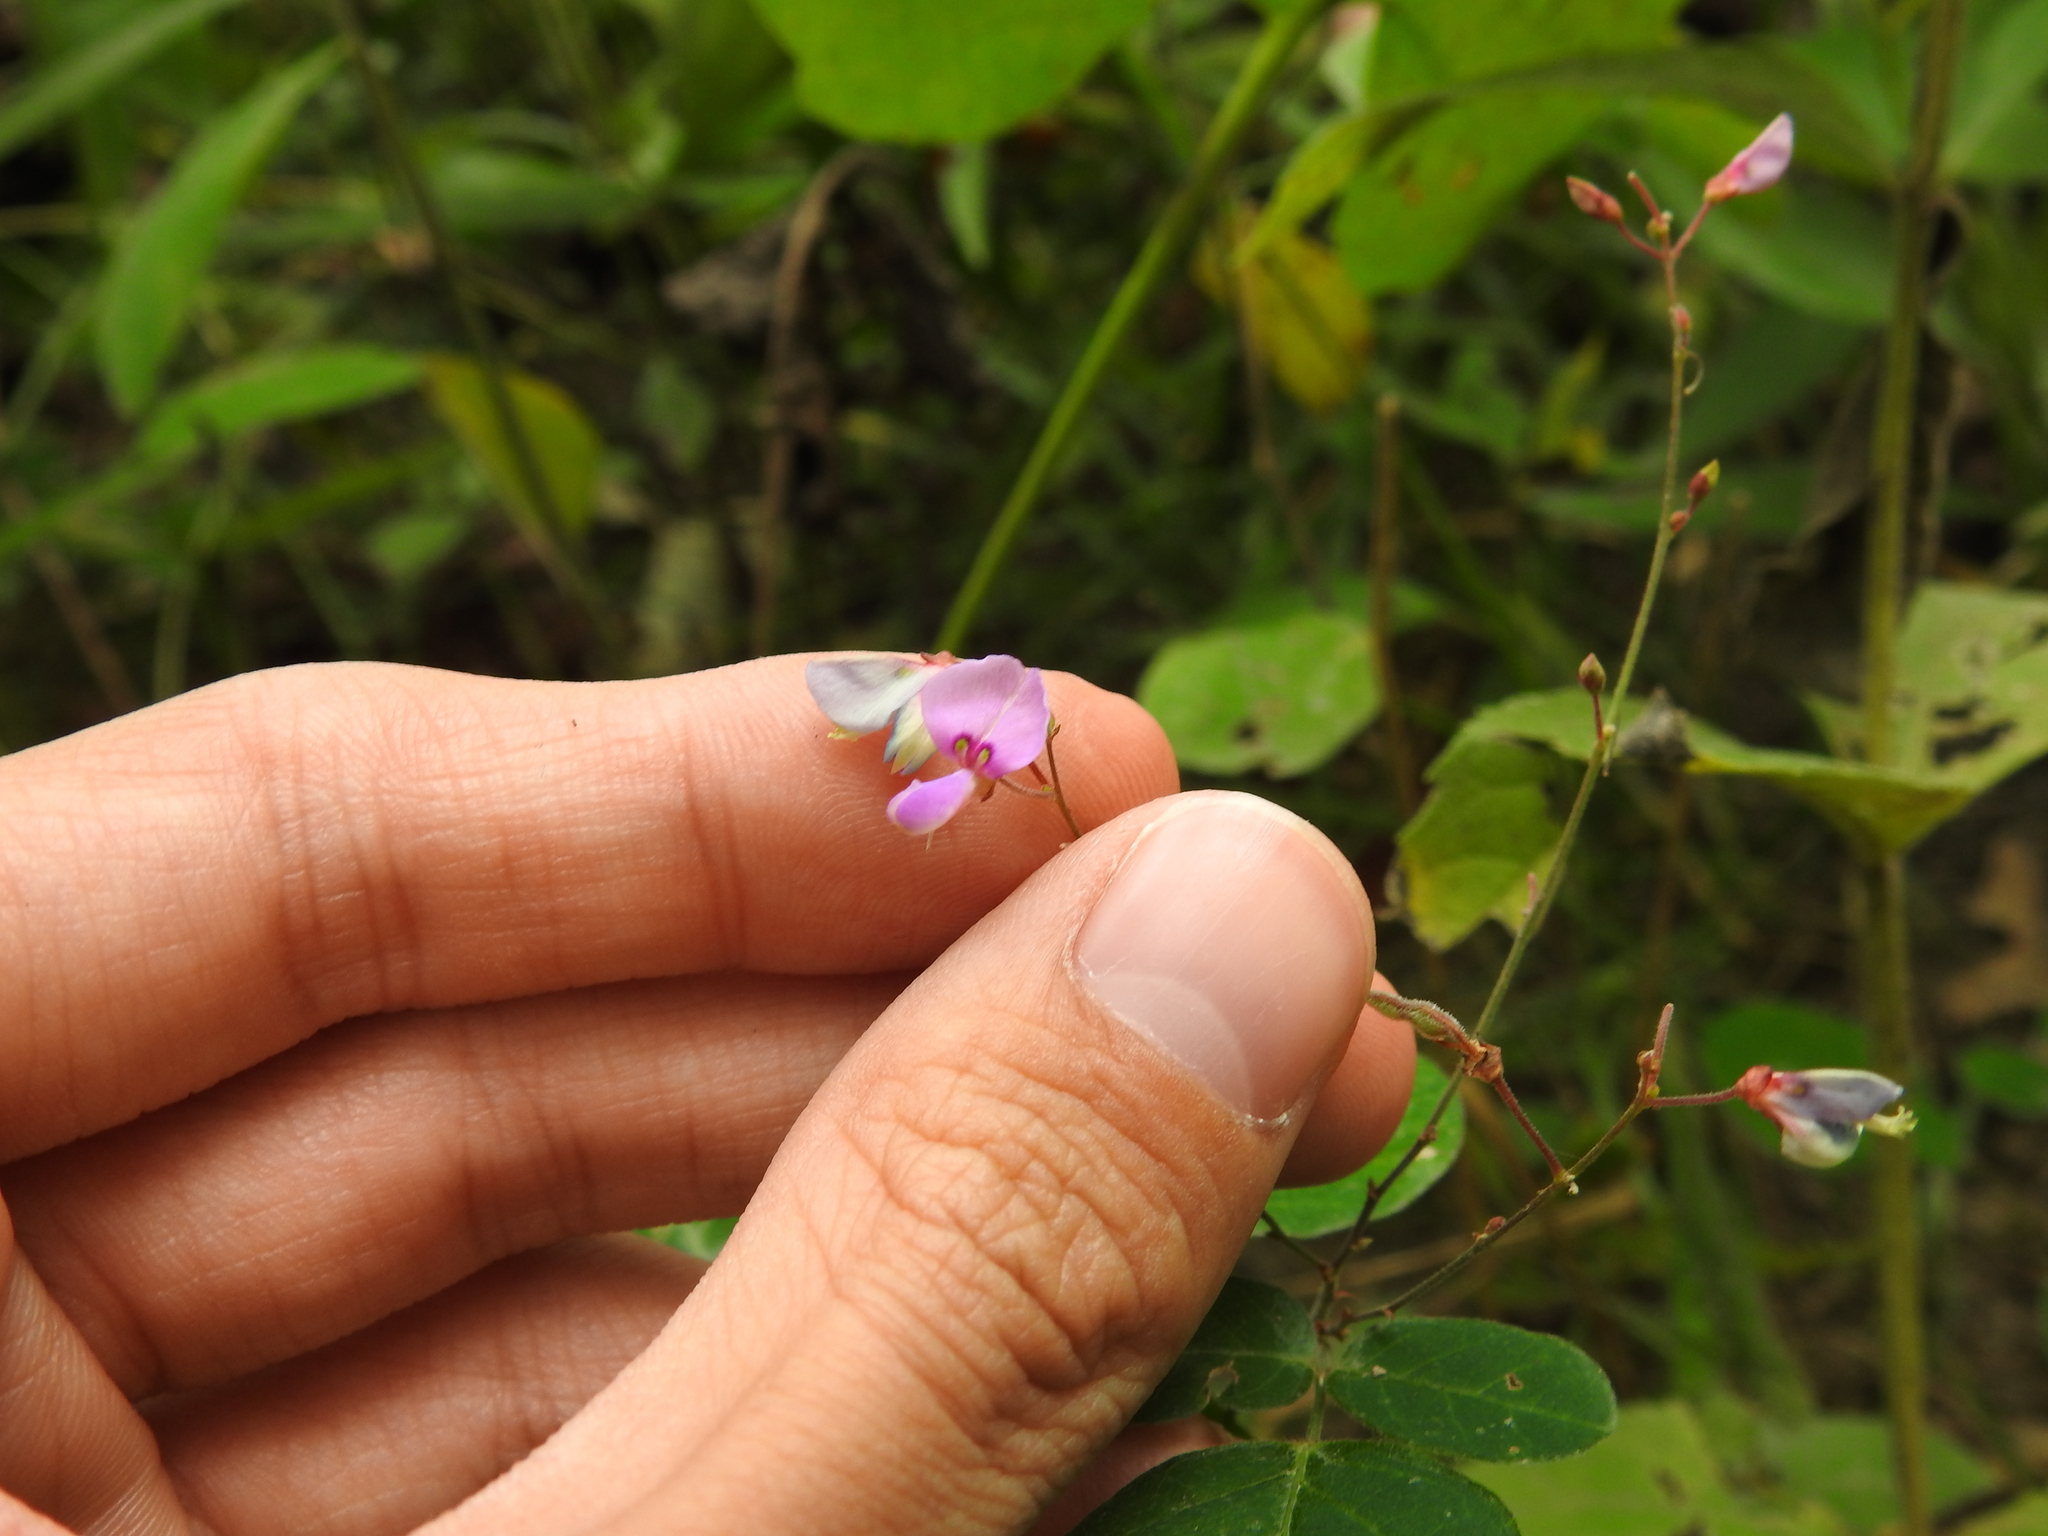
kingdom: Plantae
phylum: Tracheophyta
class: Magnoliopsida
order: Fabales
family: Fabaceae
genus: Desmodium
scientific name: Desmodium perplexum
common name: Perplexed tick trefoil
